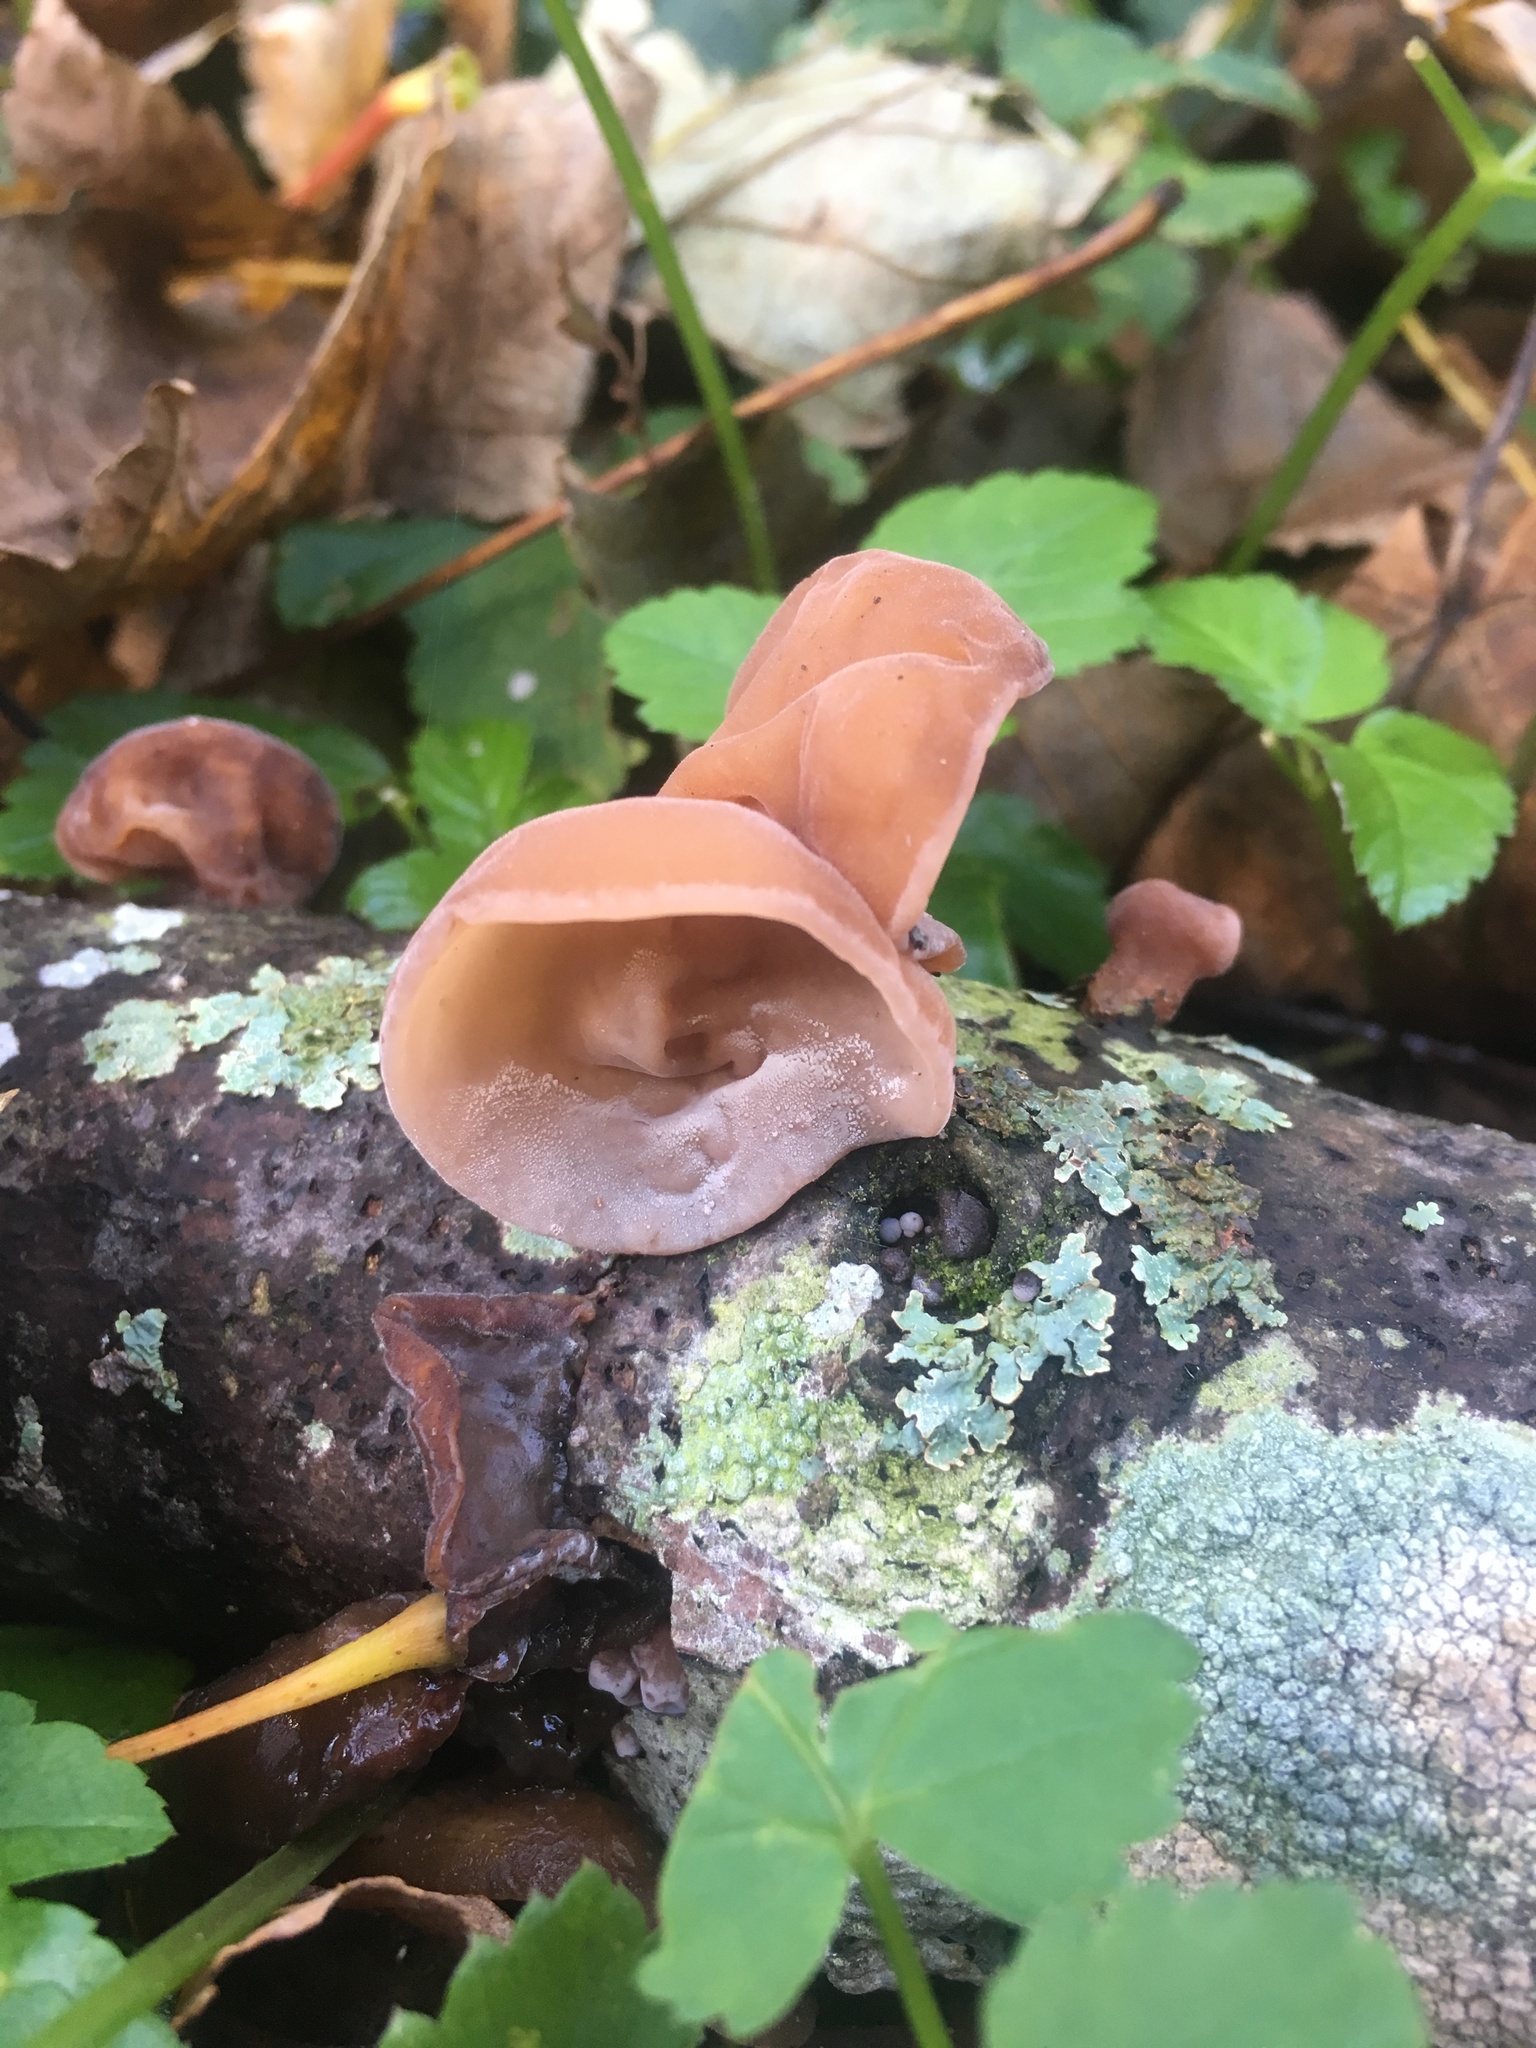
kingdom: Fungi
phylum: Basidiomycota
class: Agaricomycetes
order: Auriculariales
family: Auriculariaceae
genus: Auricularia
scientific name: Auricularia auricula-judae
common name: Jelly ear
